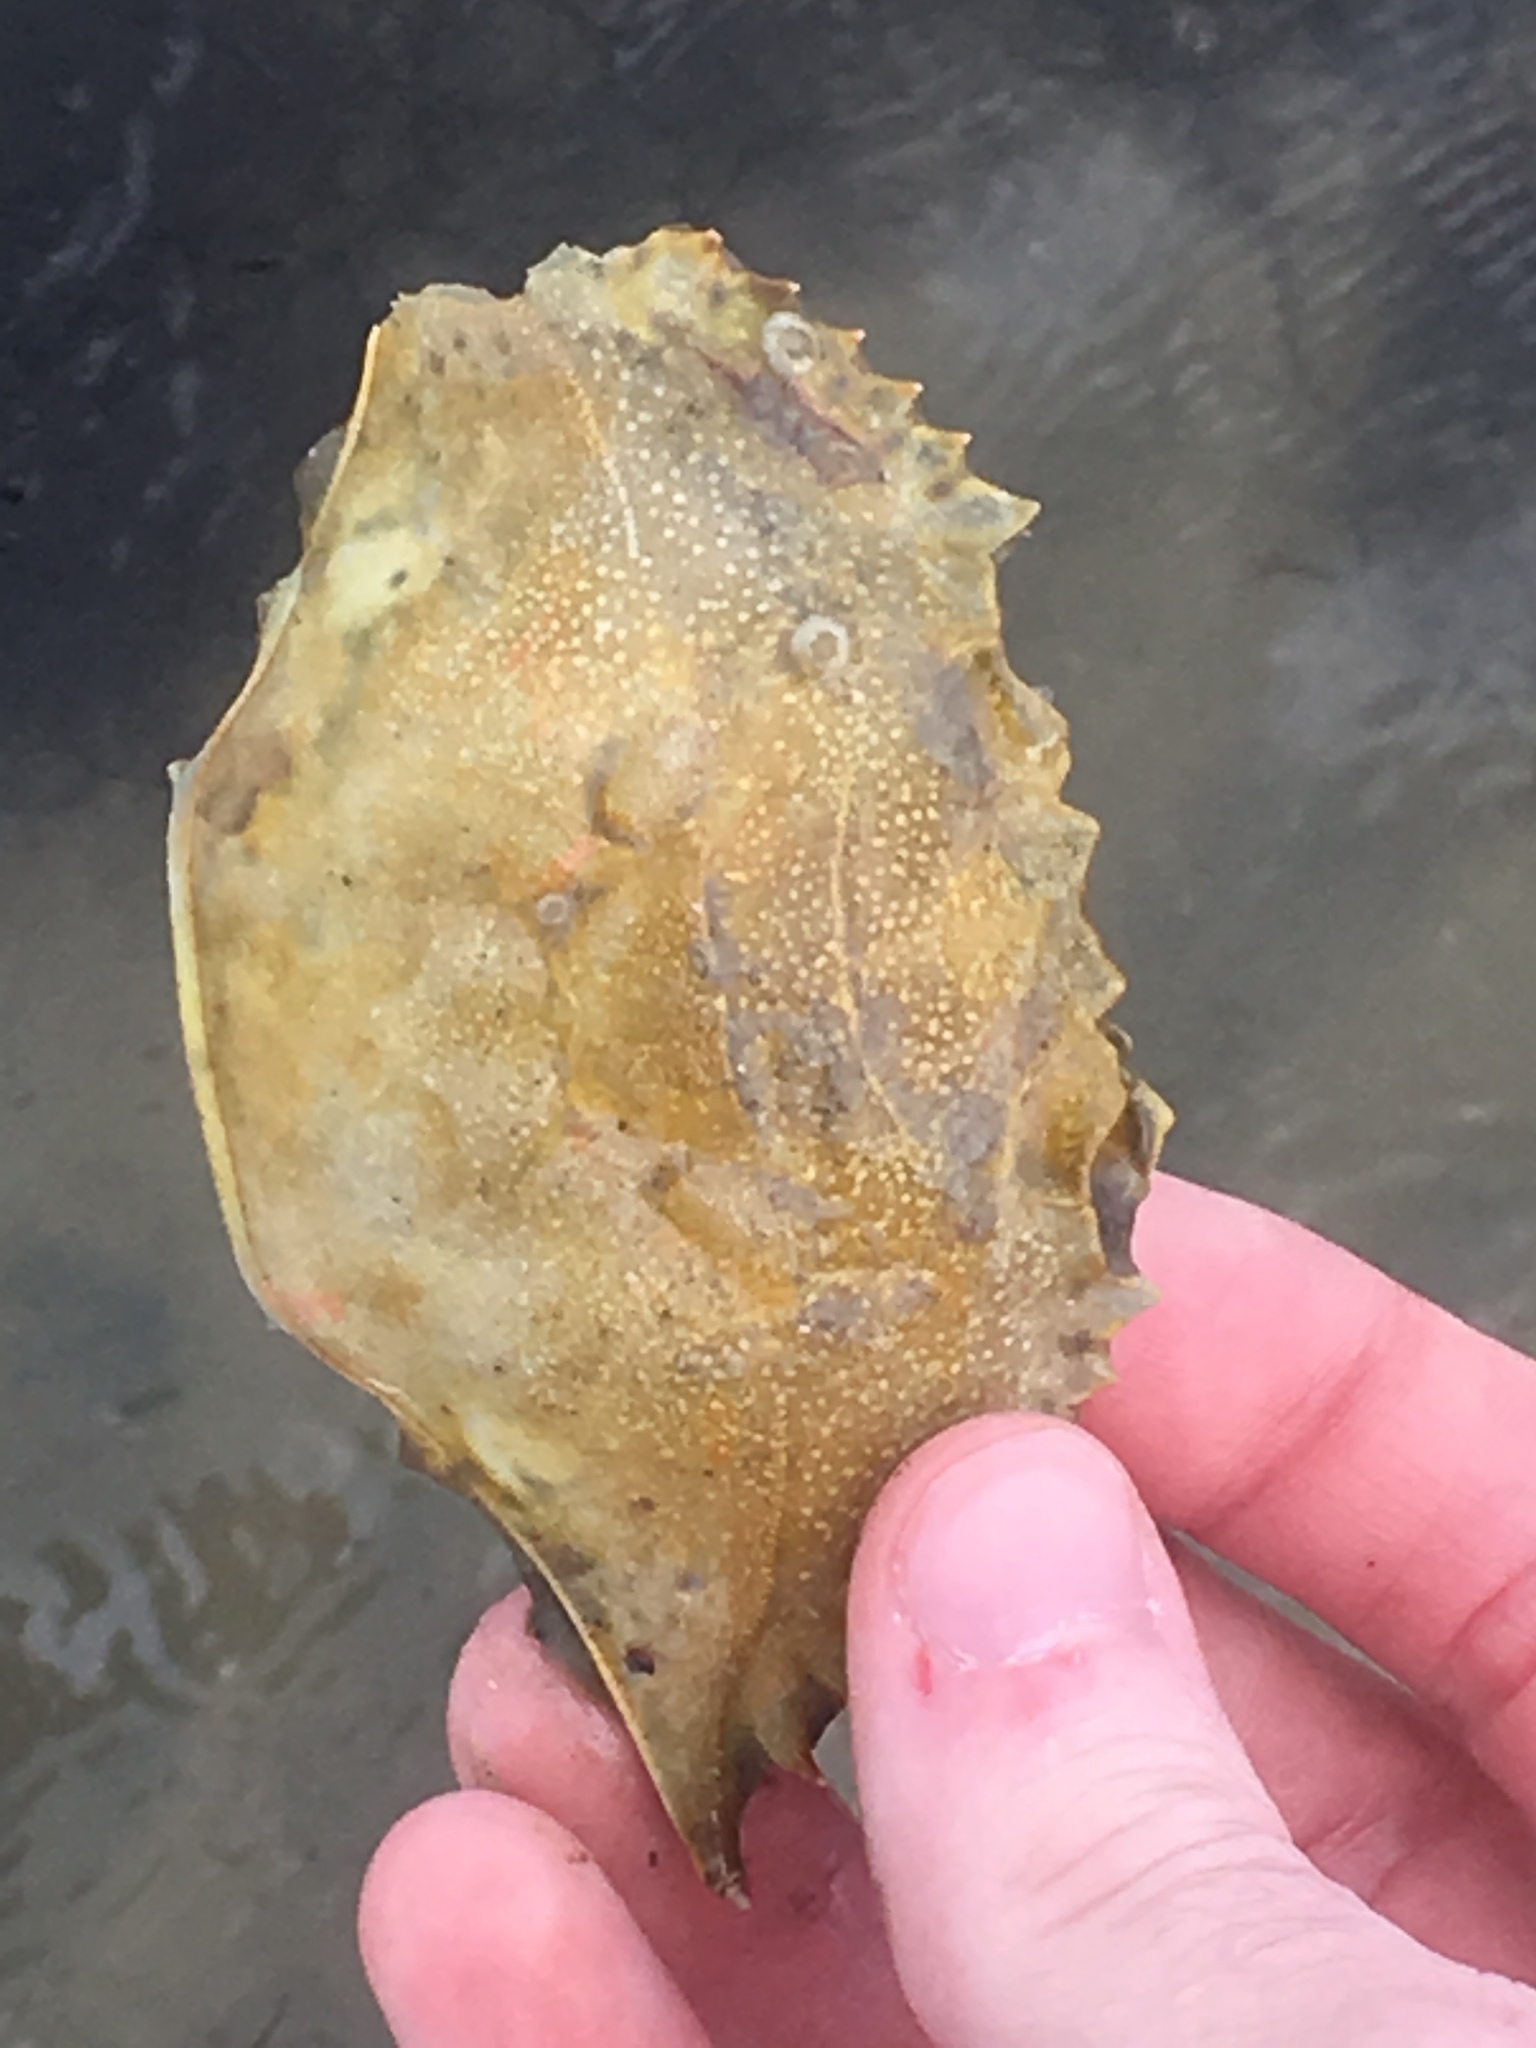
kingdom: Animalia
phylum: Arthropoda
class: Malacostraca
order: Decapoda
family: Portunidae
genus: Callinectes
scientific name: Callinectes sapidus
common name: Blue crab
